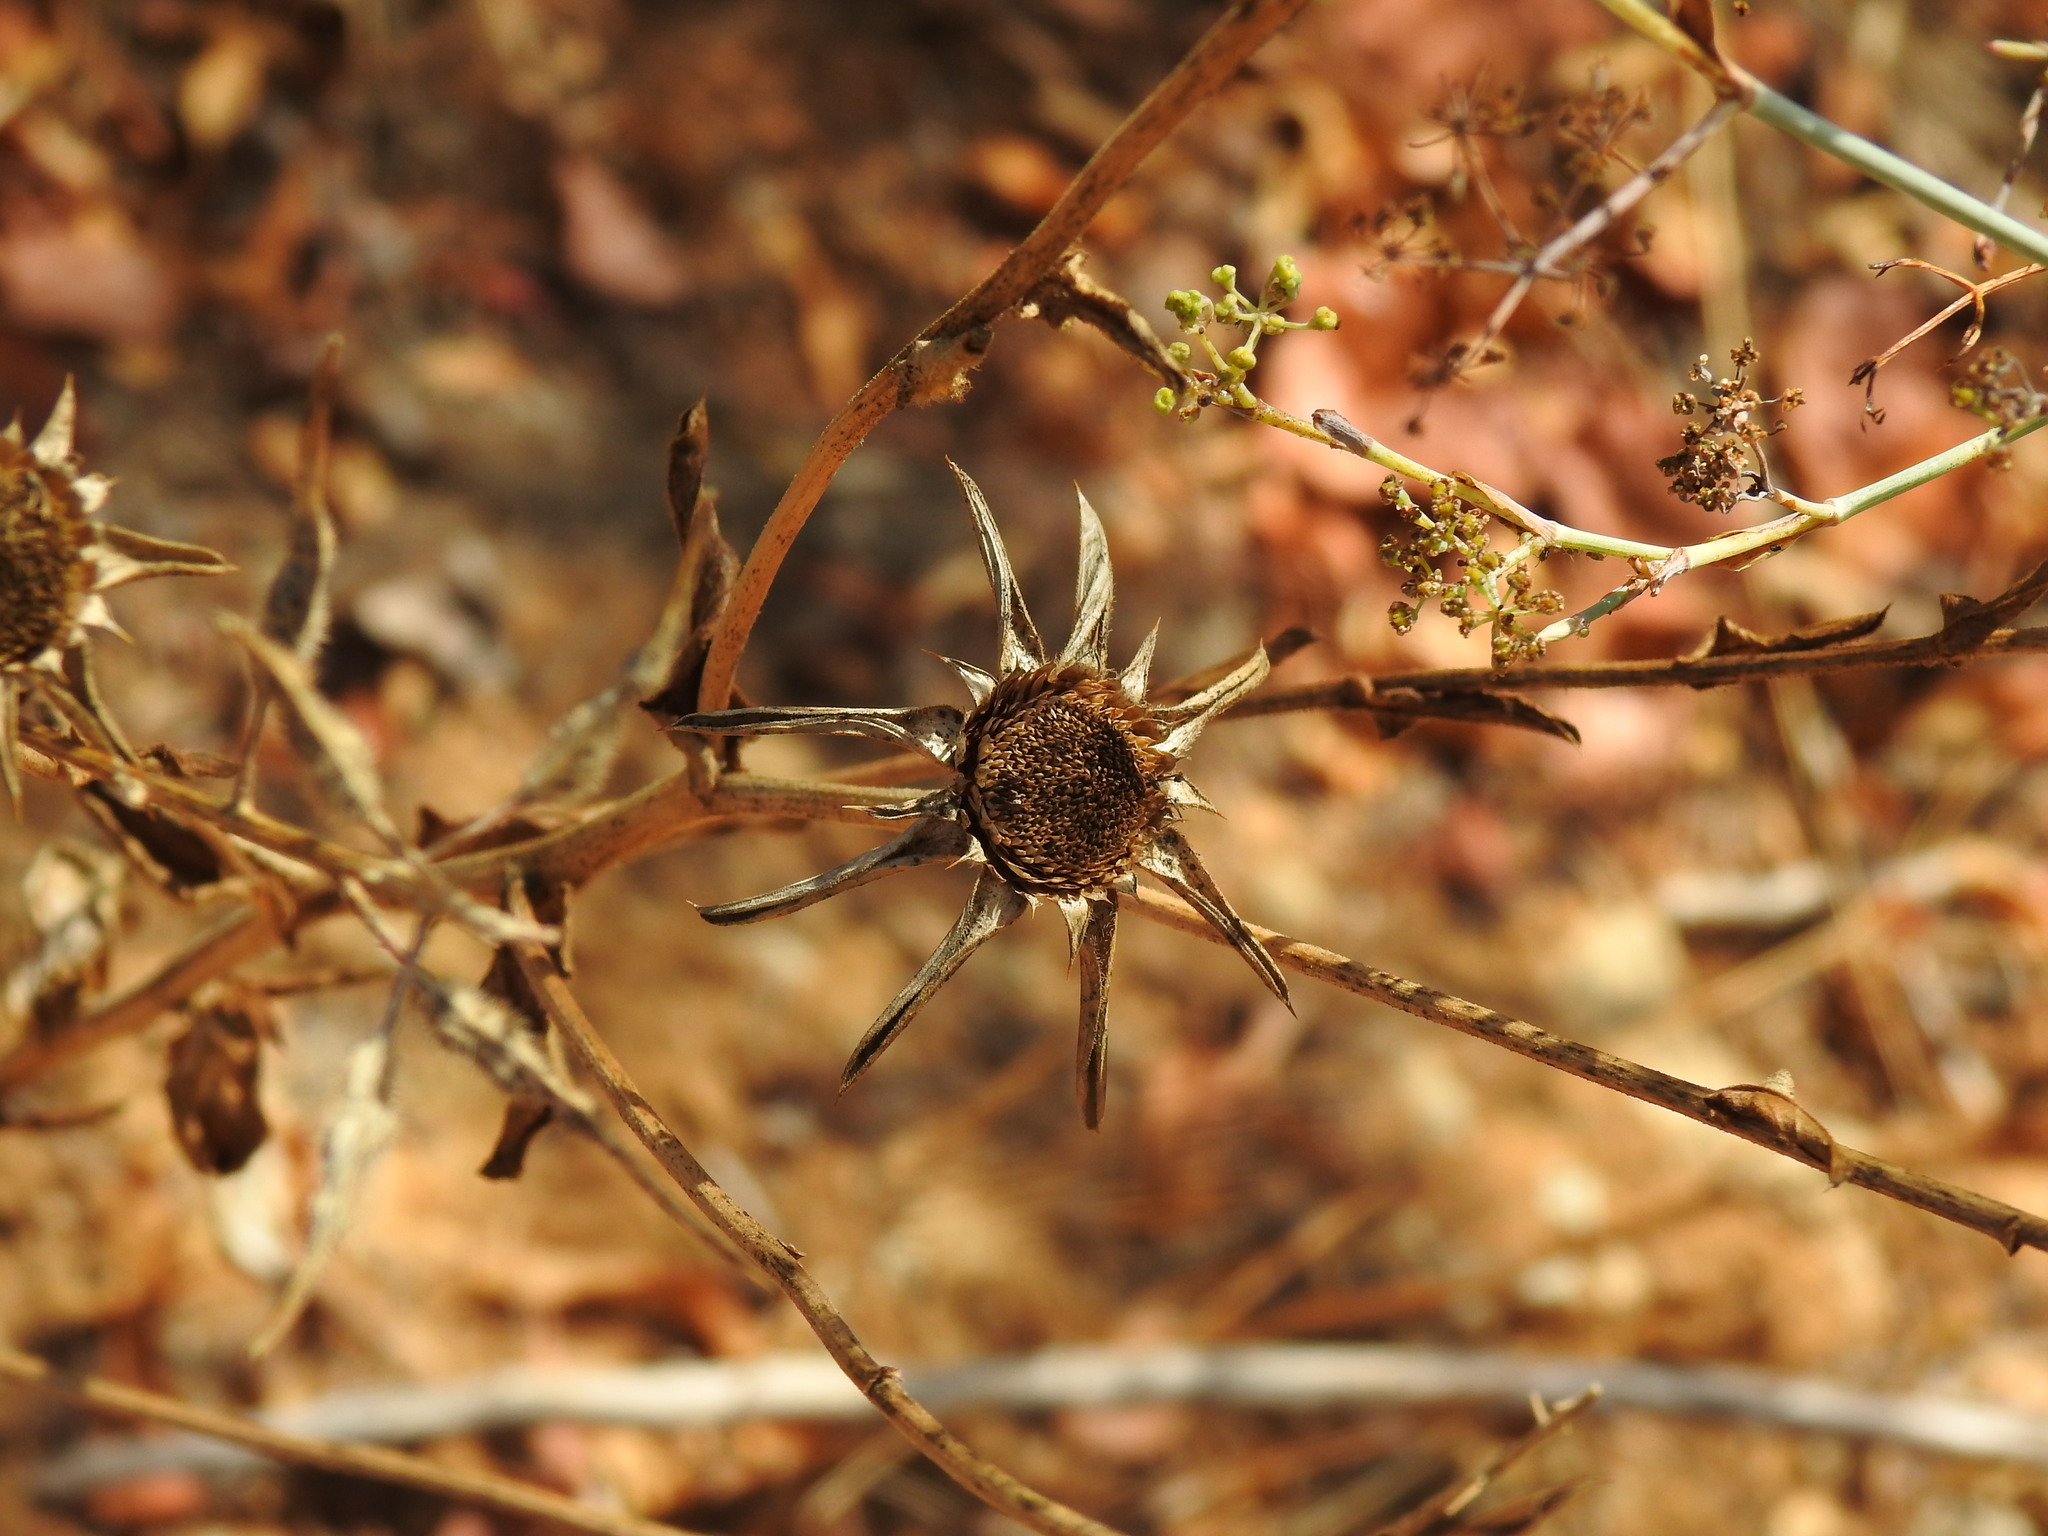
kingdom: Plantae
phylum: Tracheophyta
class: Magnoliopsida
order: Asterales
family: Asteraceae
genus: Pallenis
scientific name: Pallenis spinosa
